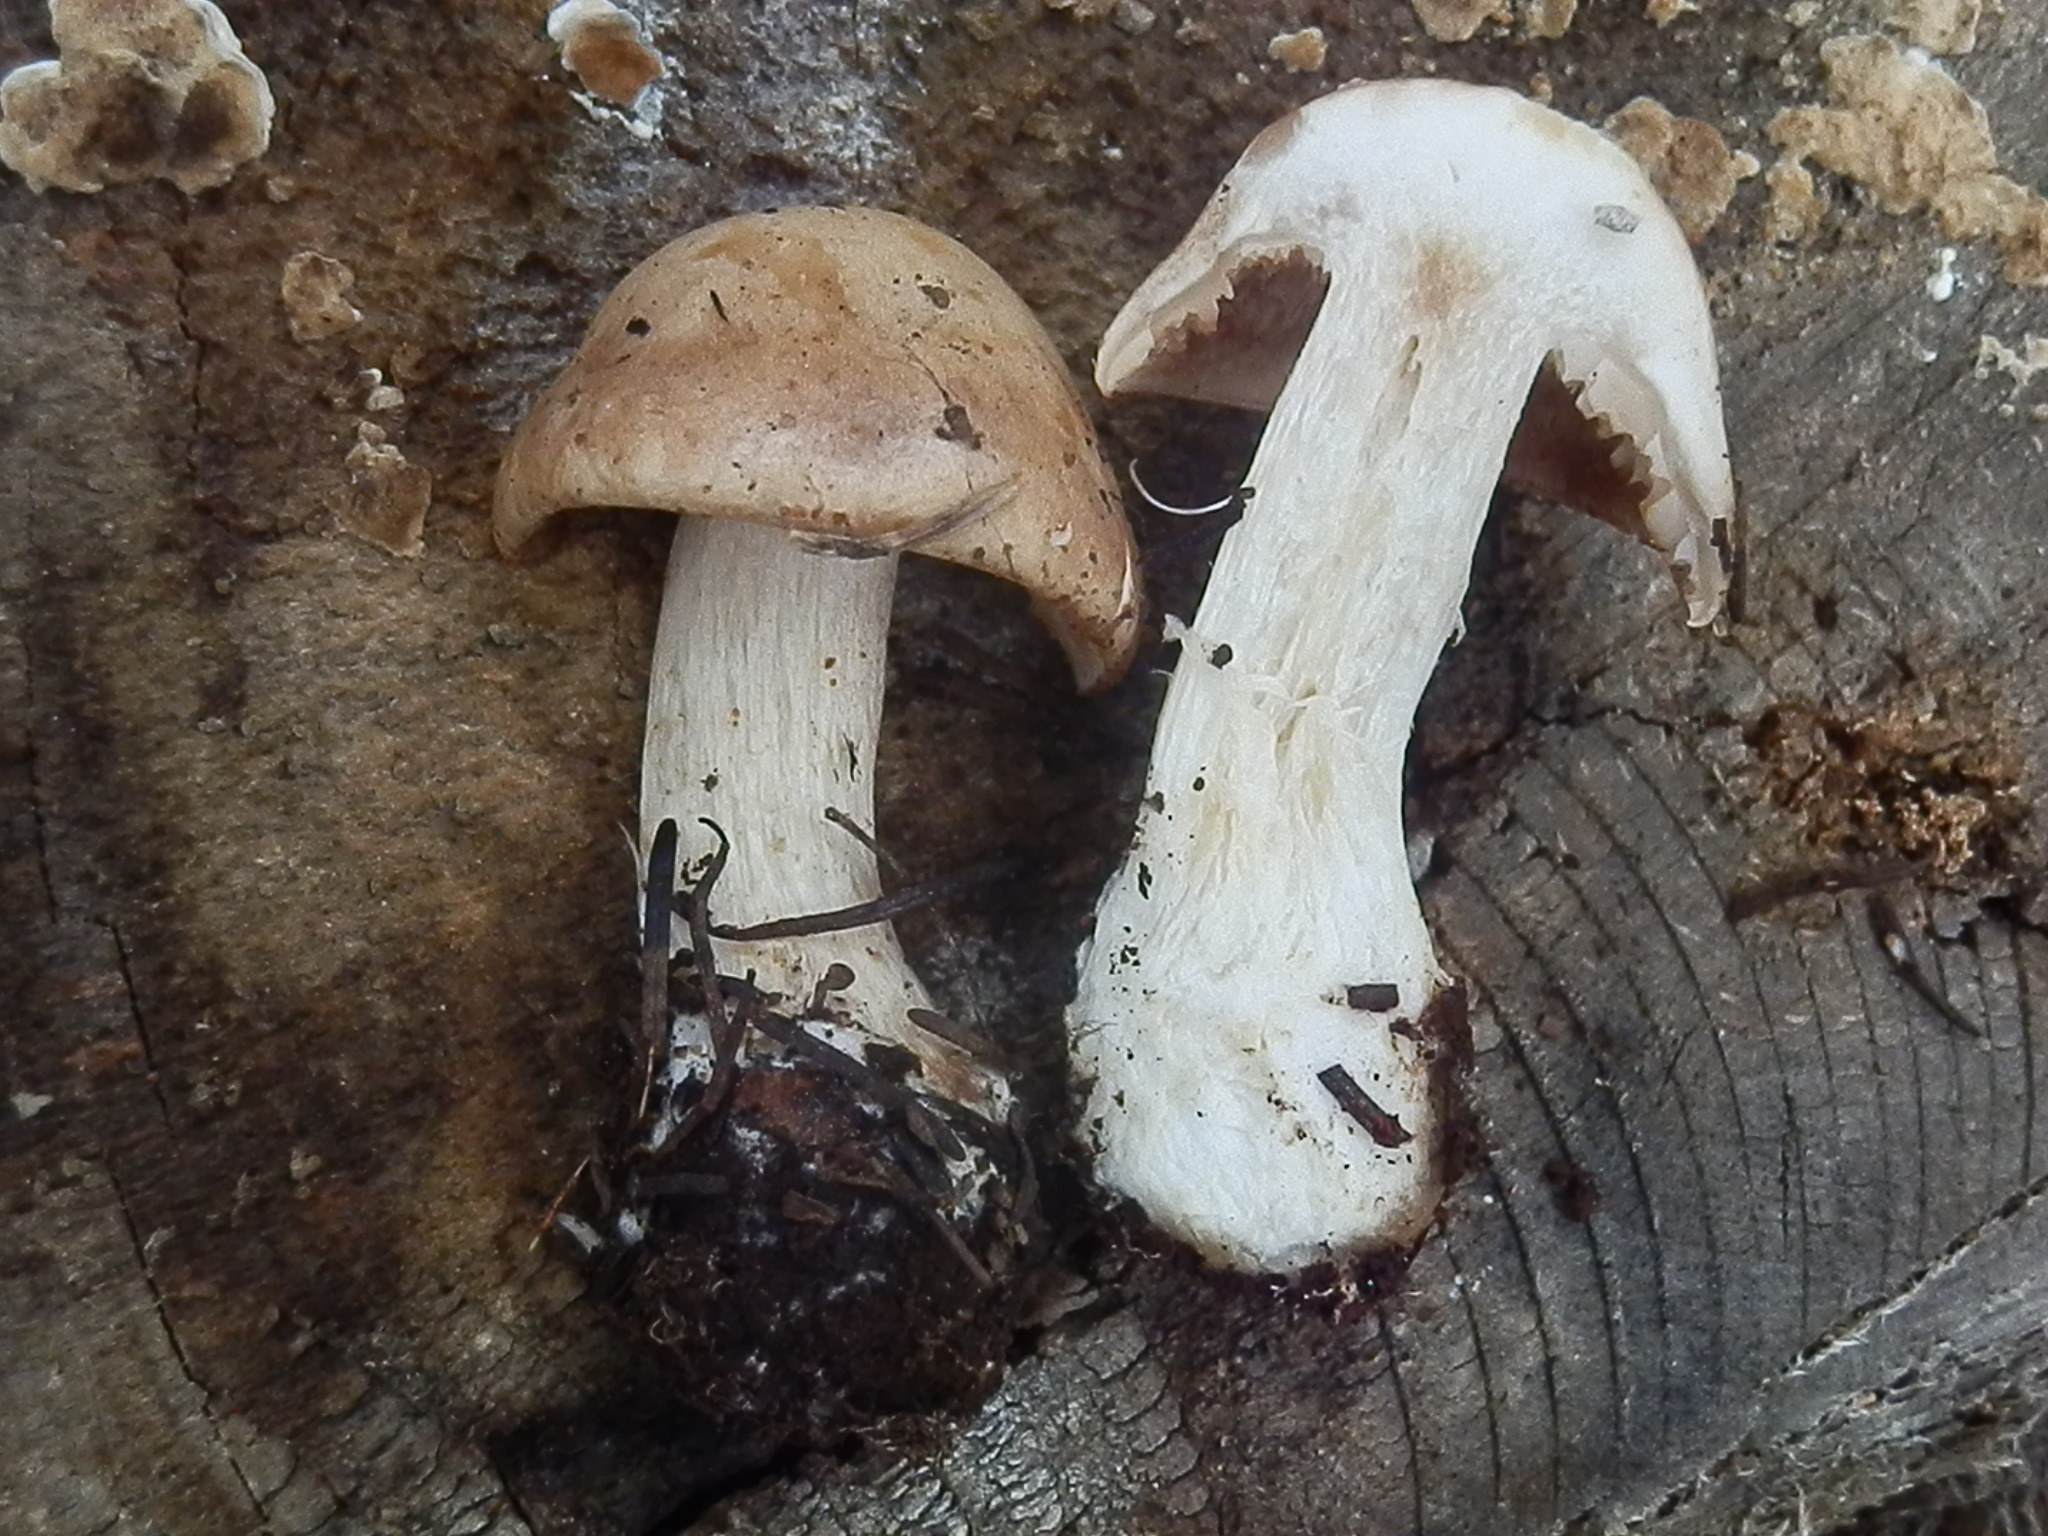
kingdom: Fungi
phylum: Basidiomycota
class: Agaricomycetes
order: Agaricales
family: Hymenogastraceae
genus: Hebeloma
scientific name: Hebeloma leucosarx
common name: Birch poisonpie
